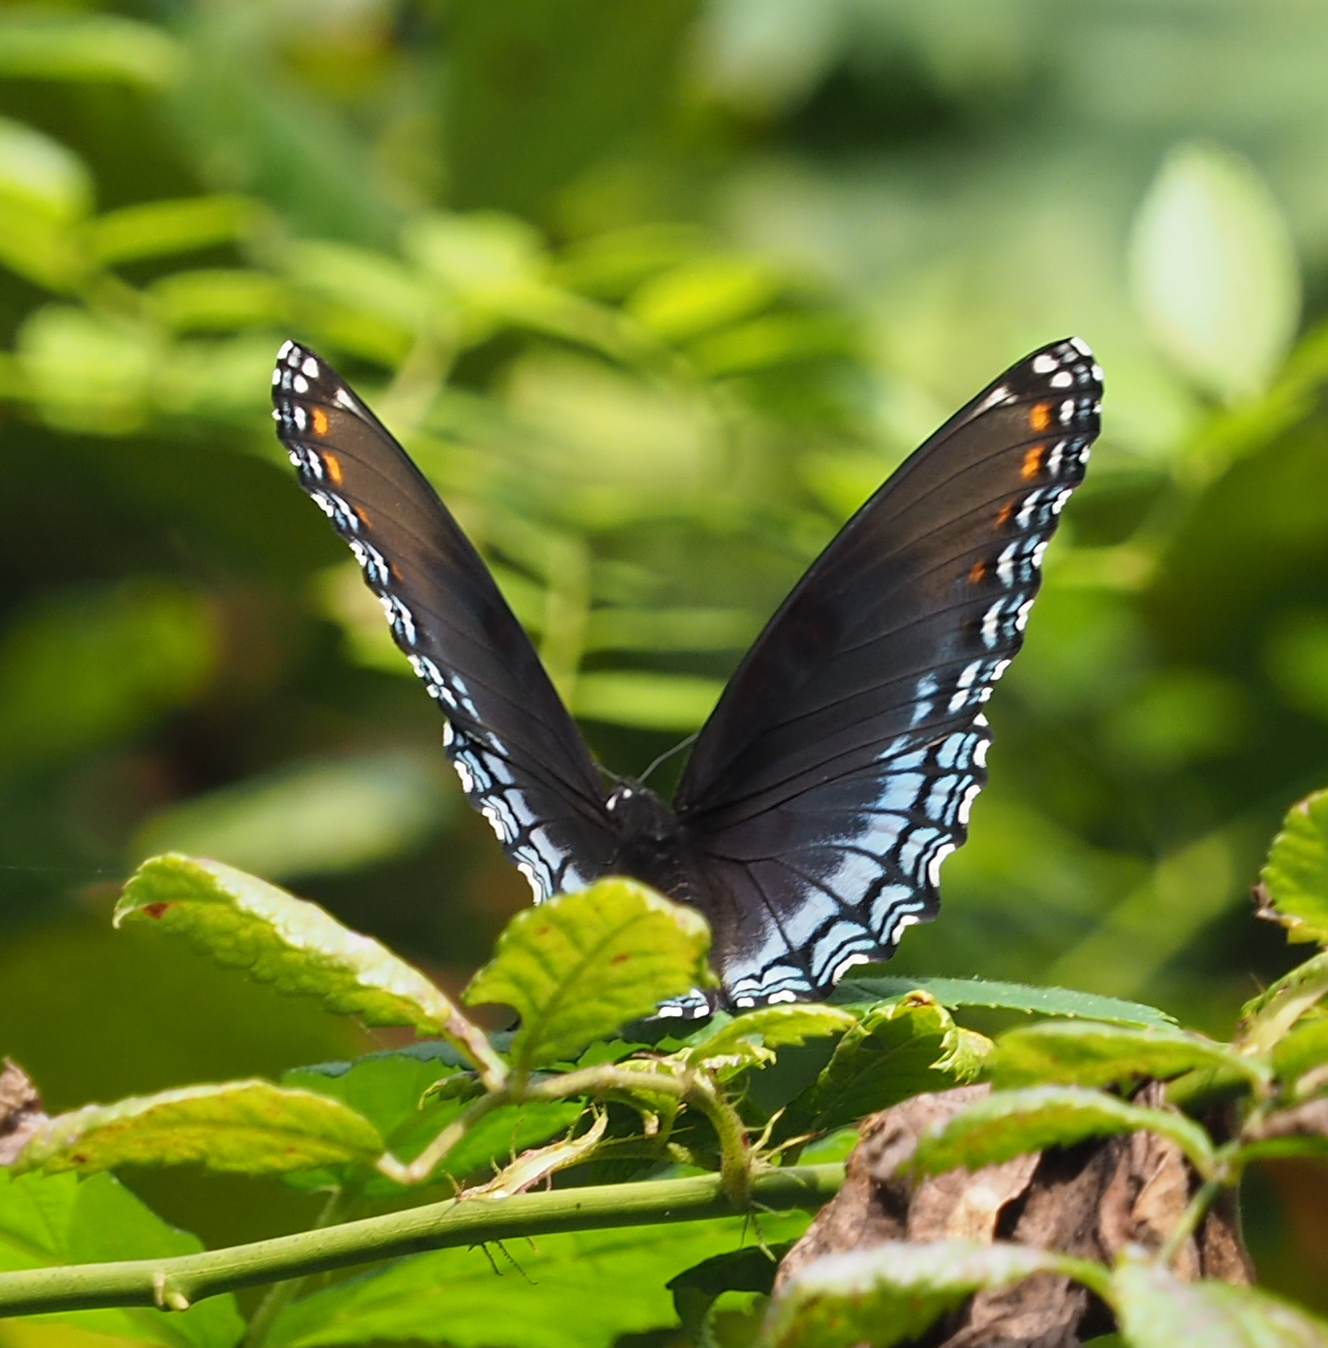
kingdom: Animalia
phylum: Arthropoda
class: Insecta
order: Lepidoptera
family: Nymphalidae
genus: Limenitis
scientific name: Limenitis astyanax
